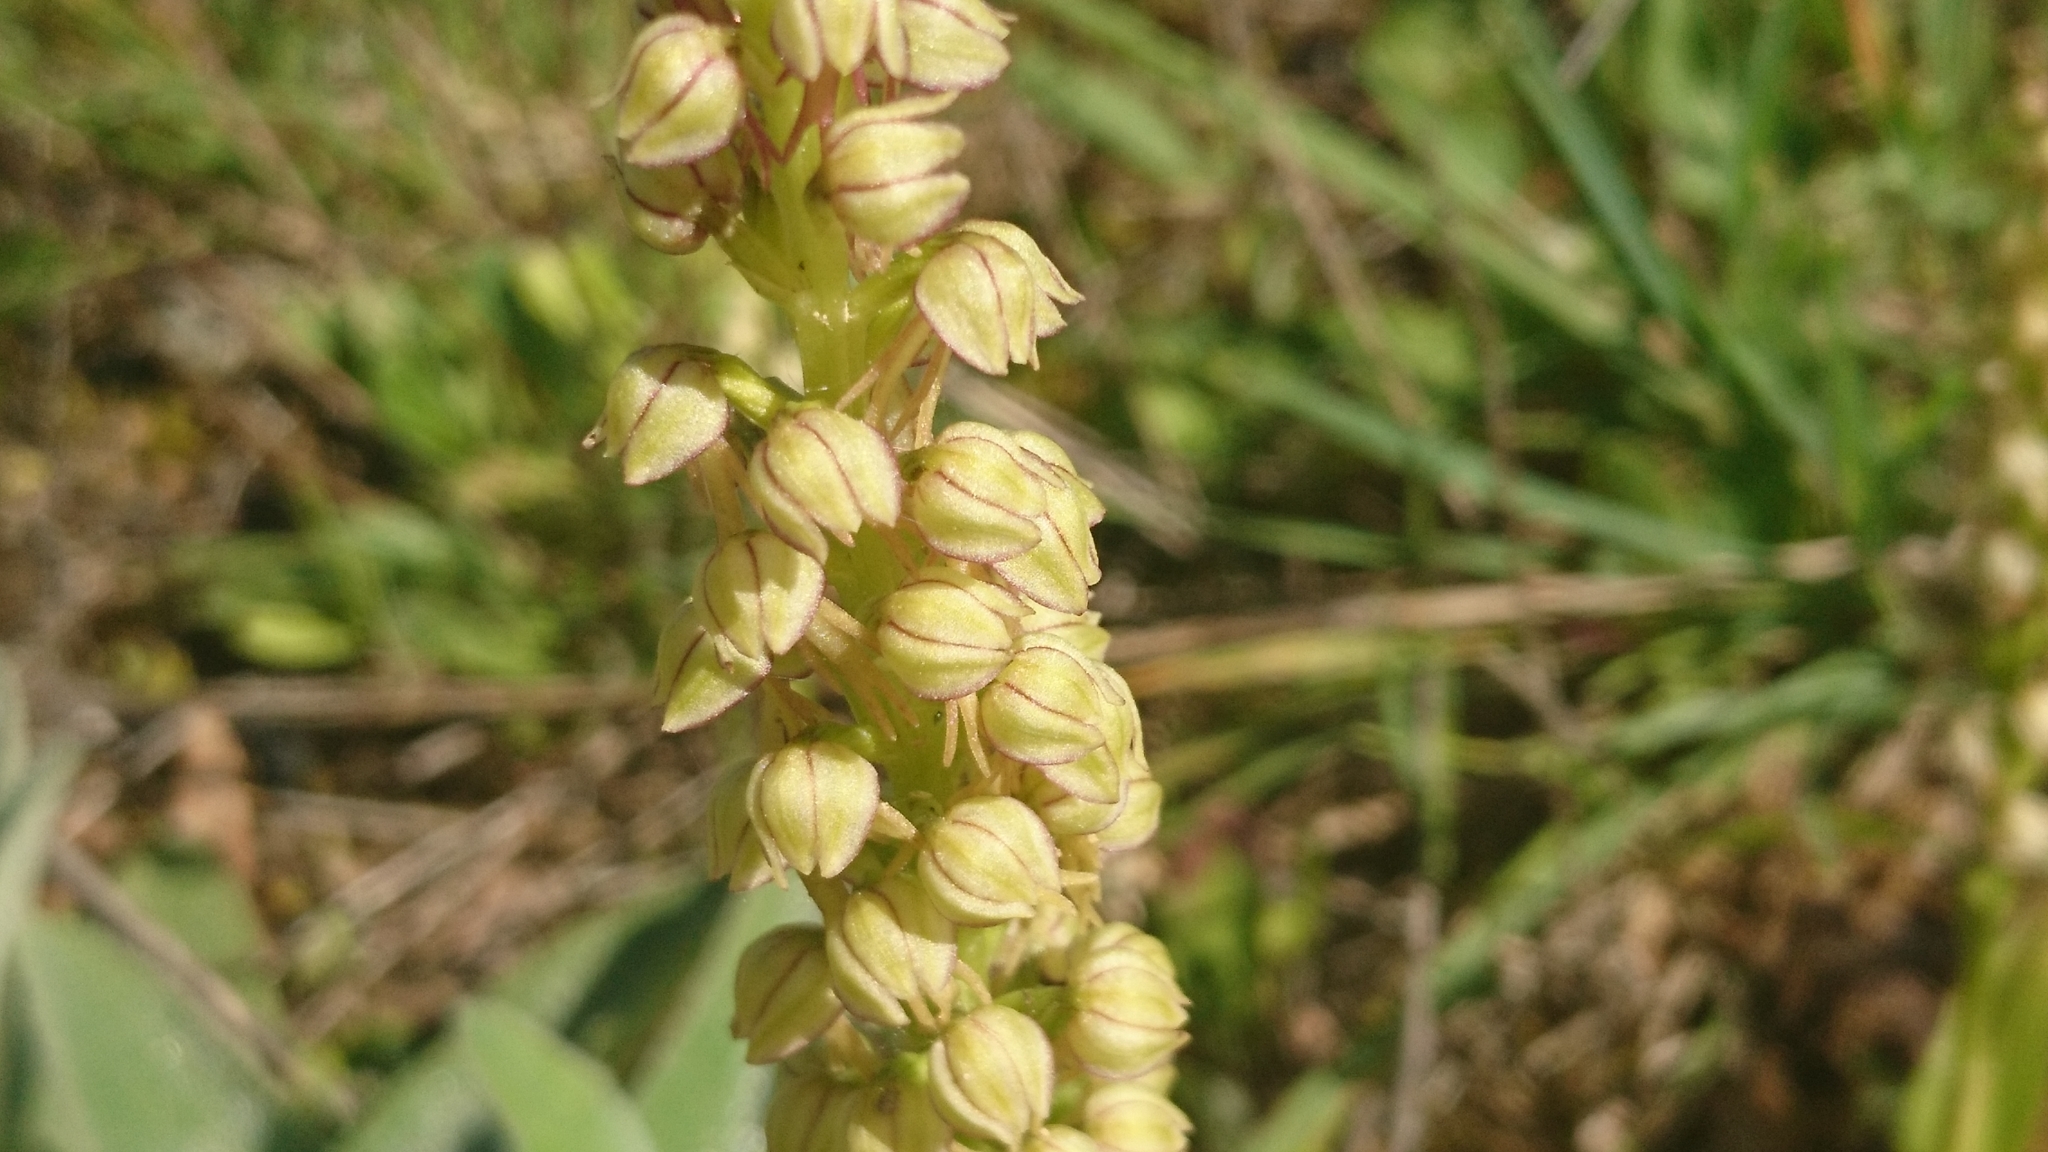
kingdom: Plantae
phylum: Tracheophyta
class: Liliopsida
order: Asparagales
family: Orchidaceae
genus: Orchis
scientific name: Orchis anthropophora
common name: Man orchid
